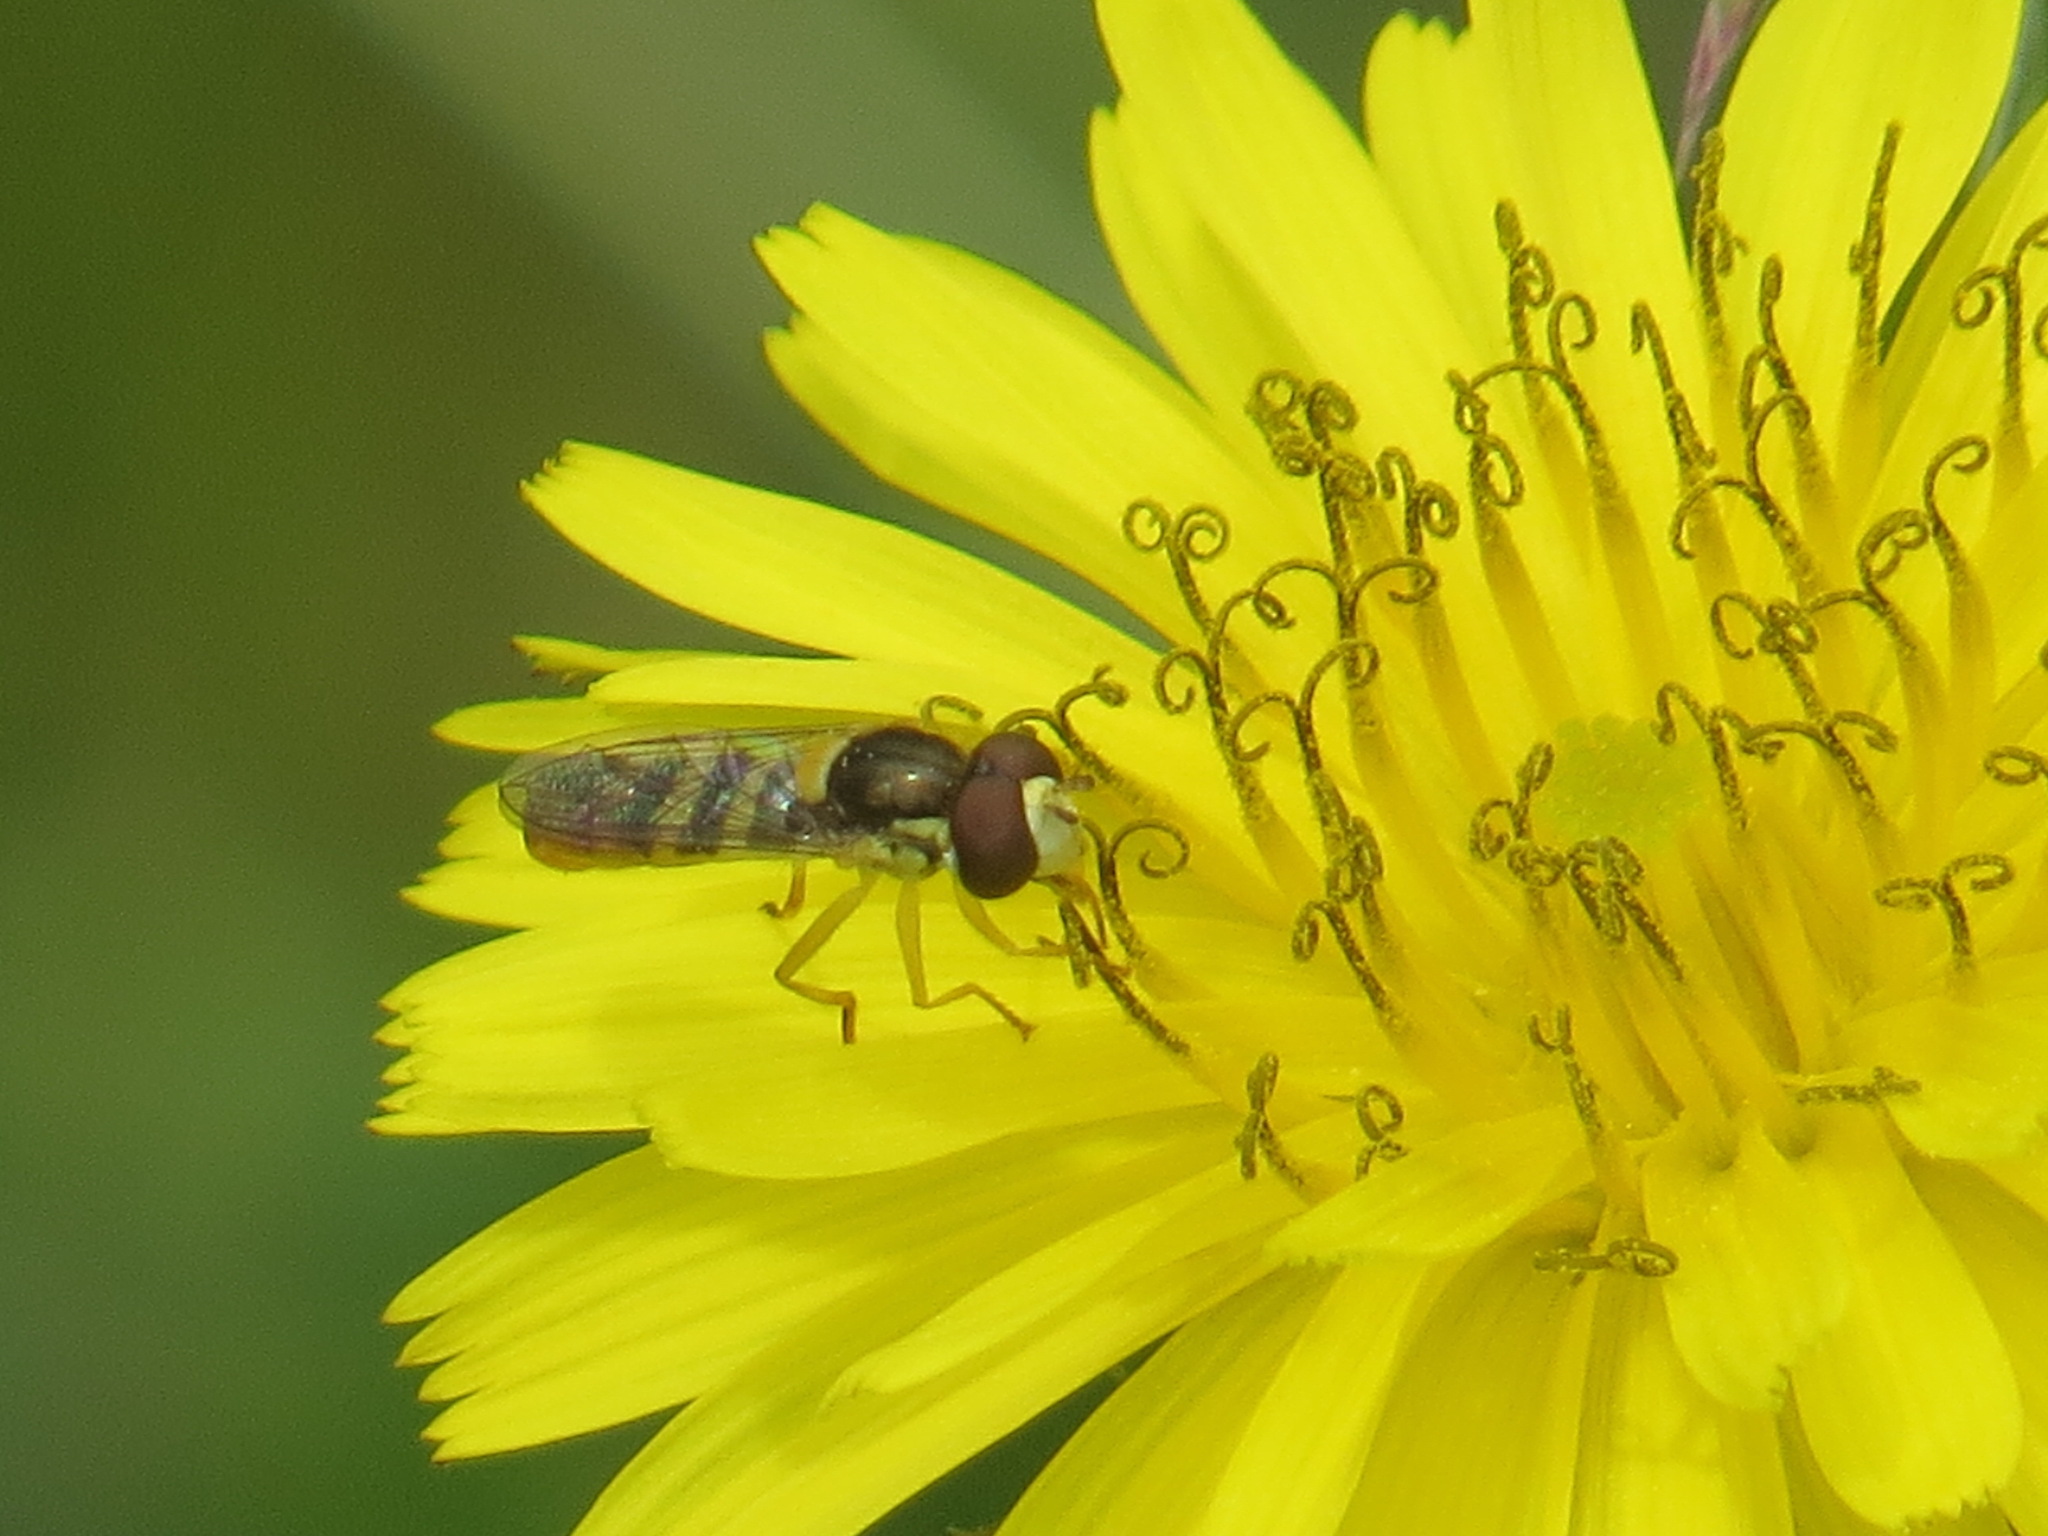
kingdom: Animalia
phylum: Arthropoda
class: Insecta
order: Diptera
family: Syrphidae
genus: Sphaerophoria
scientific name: Sphaerophoria sulphuripes
